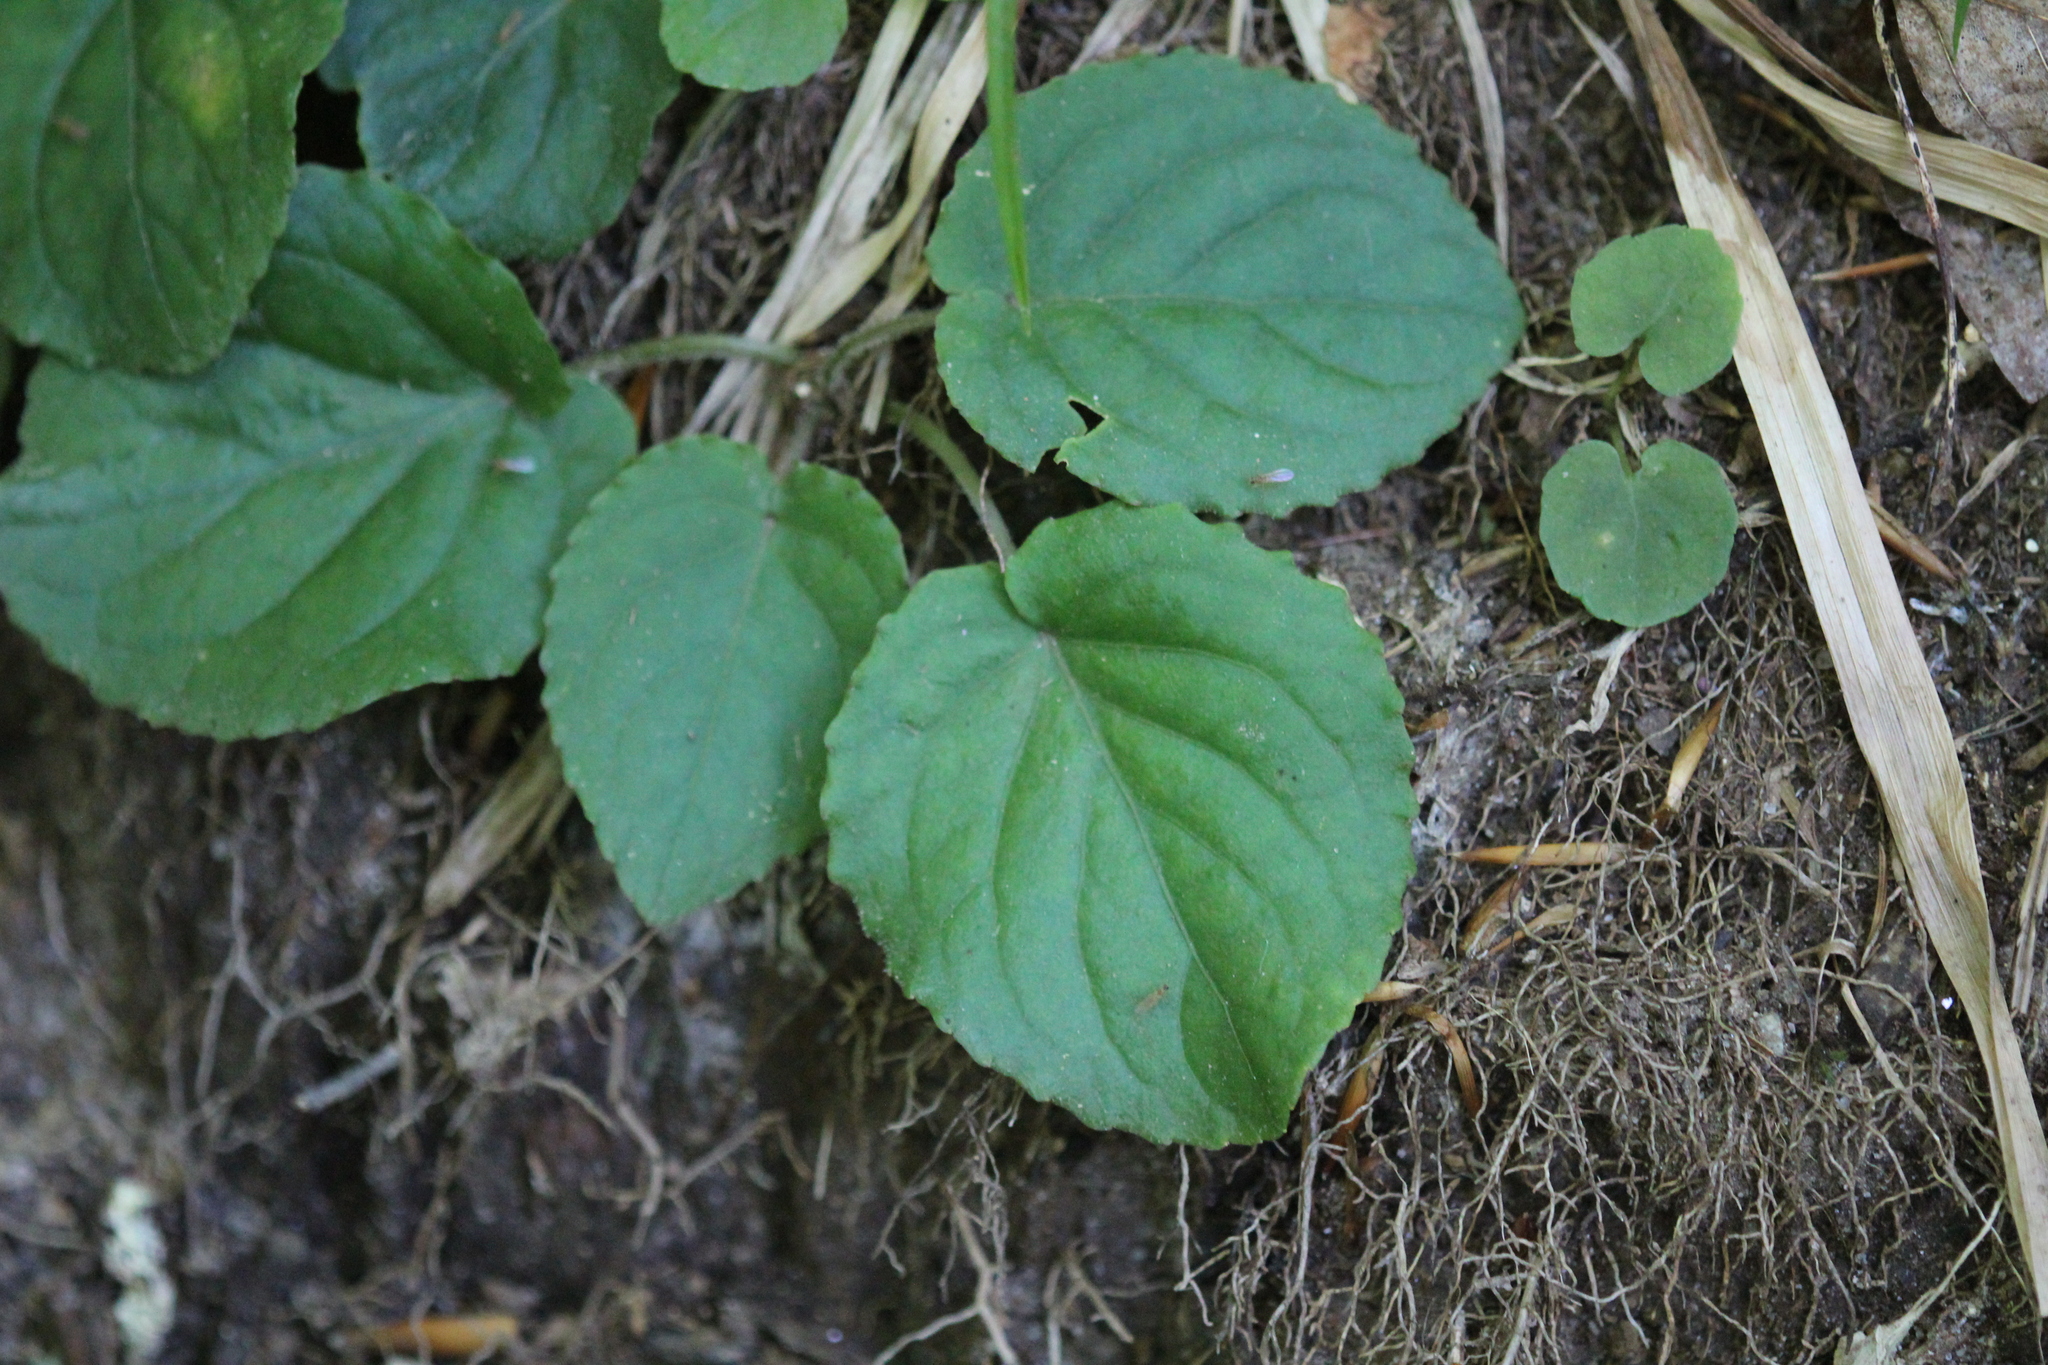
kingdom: Plantae
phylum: Tracheophyta
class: Magnoliopsida
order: Malpighiales
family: Violaceae
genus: Viola
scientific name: Viola rotundifolia
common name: Early yellow violet
